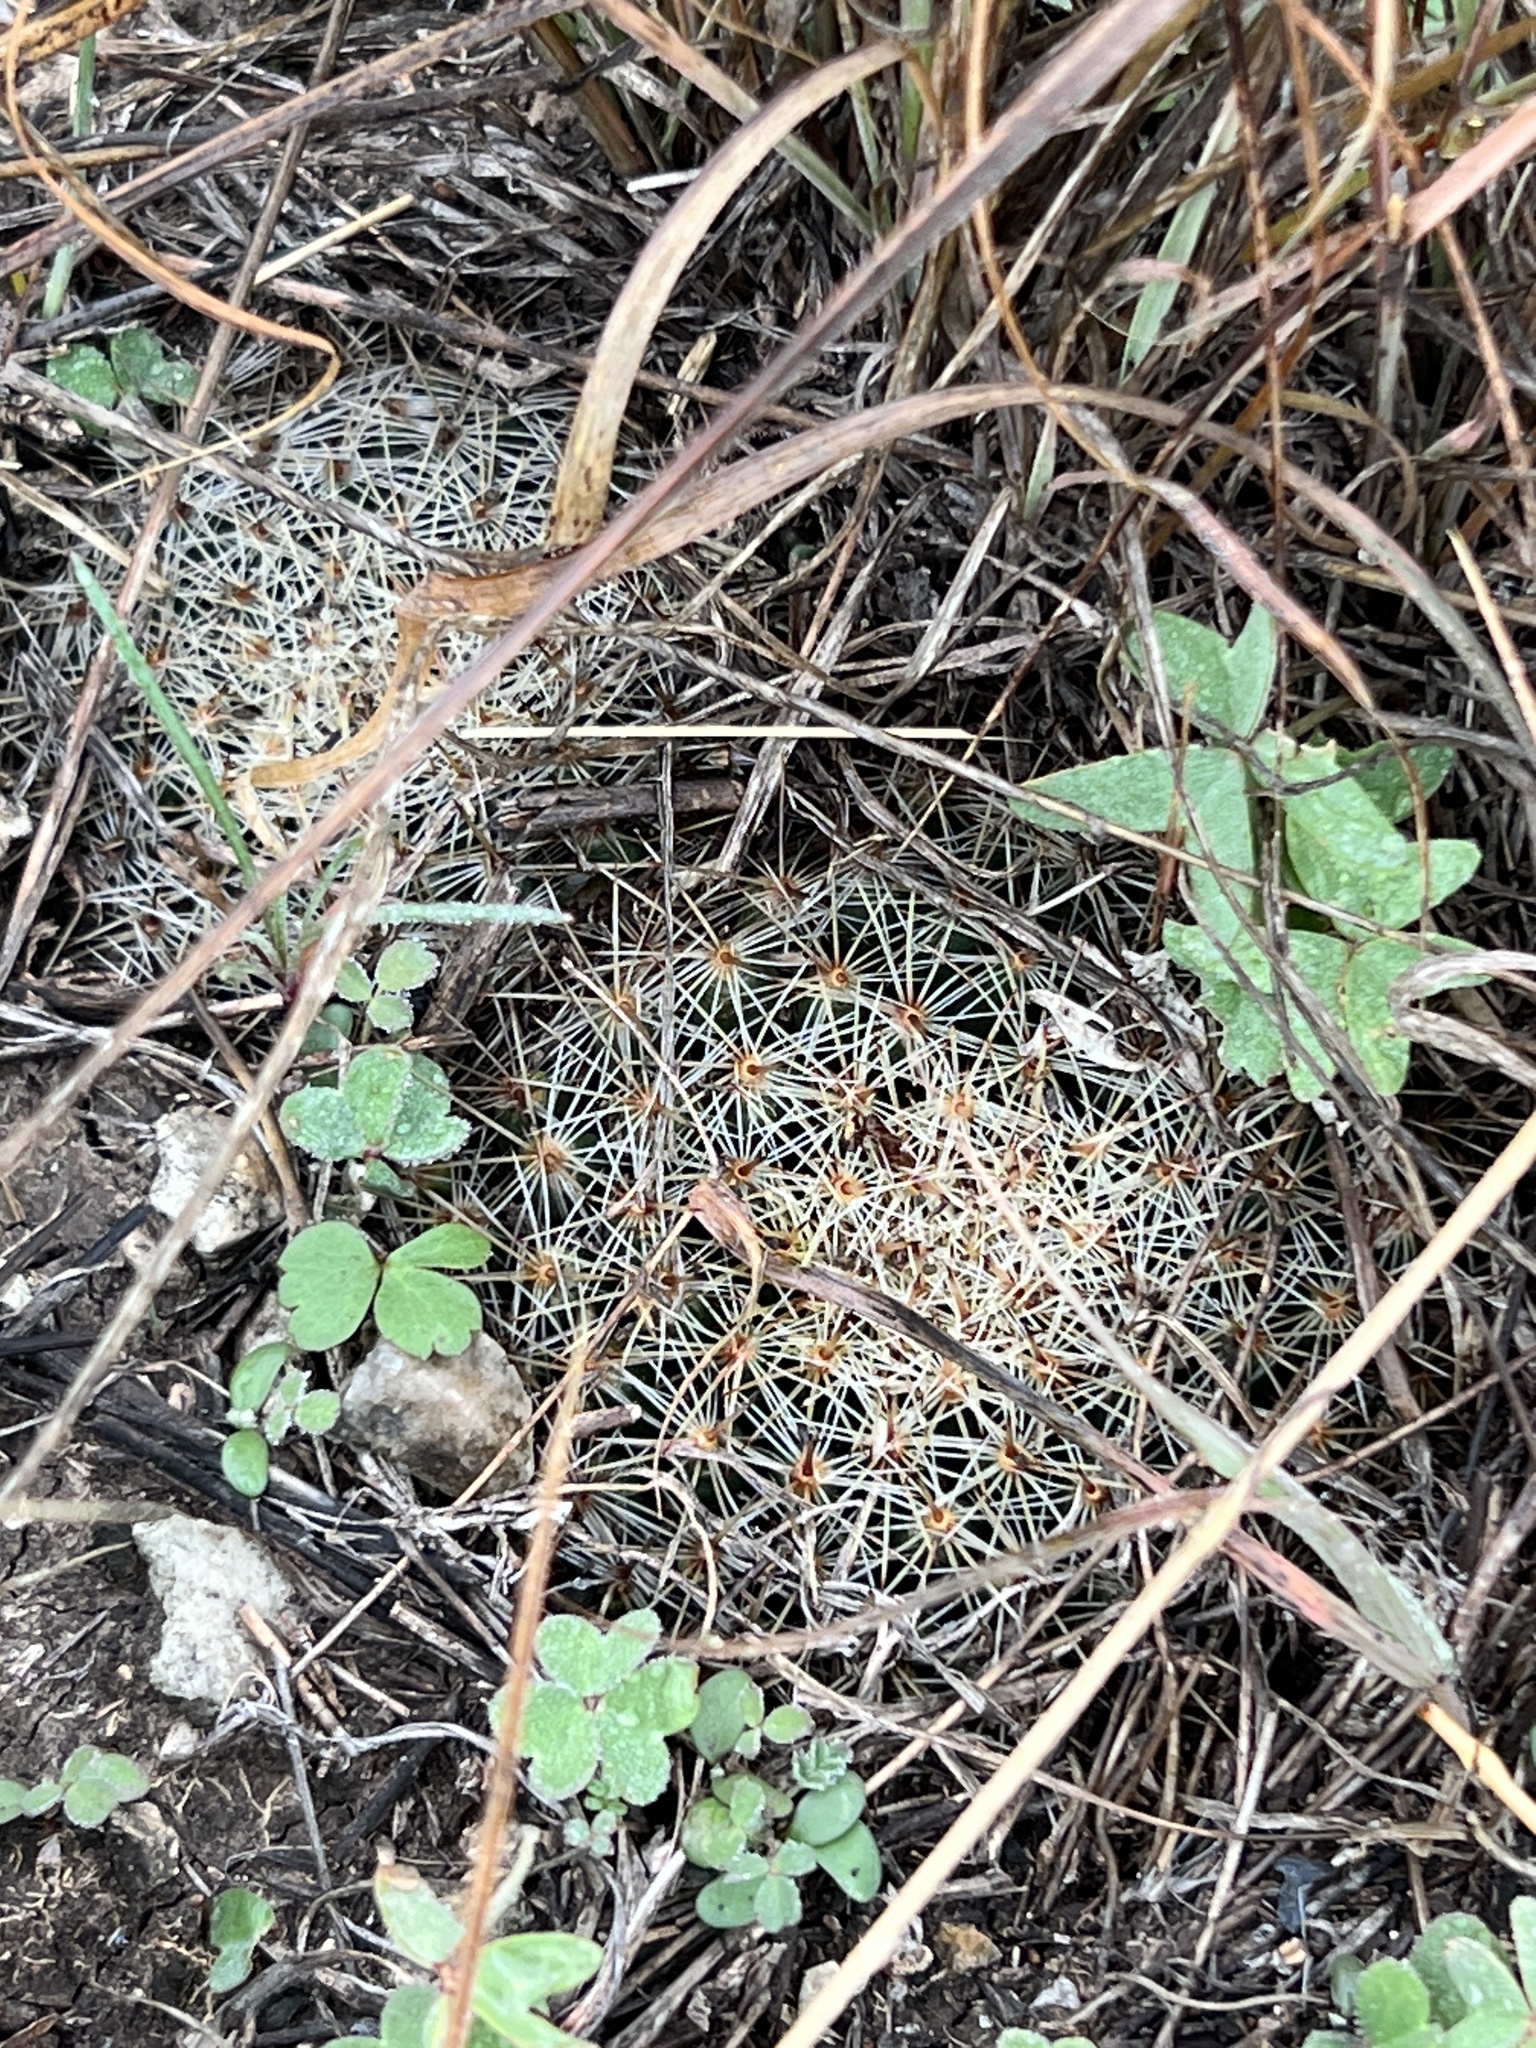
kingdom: Plantae
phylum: Tracheophyta
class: Magnoliopsida
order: Caryophyllales
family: Cactaceae
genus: Mammillaria
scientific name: Mammillaria heyderi
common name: Little nipple cactus
